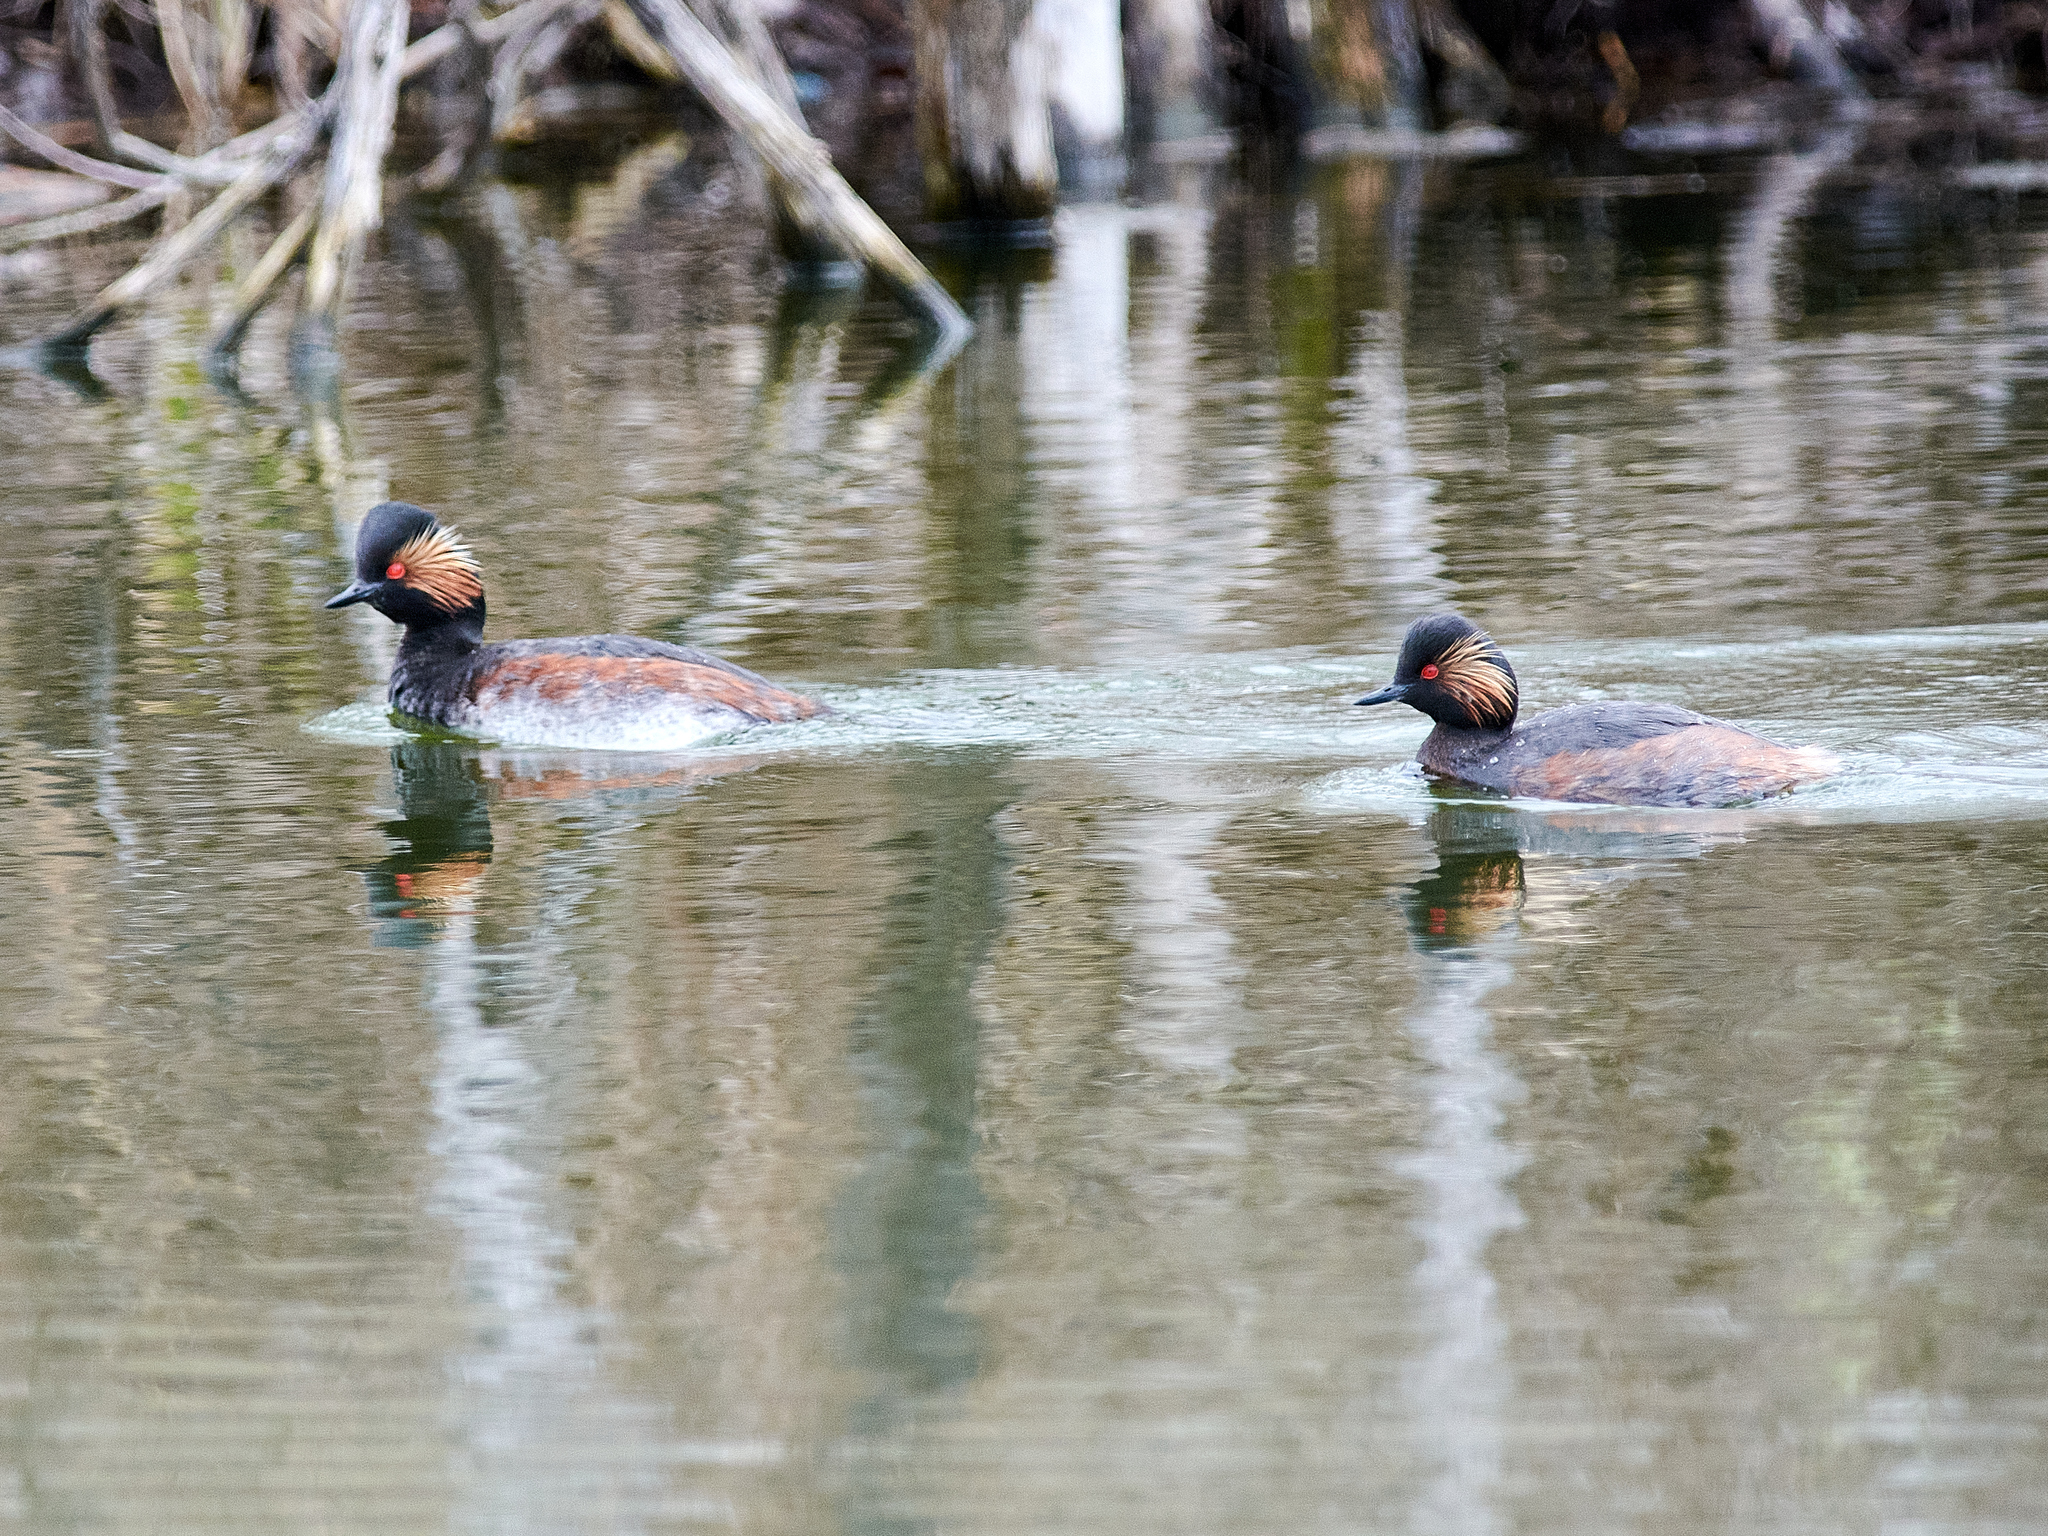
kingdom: Animalia
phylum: Chordata
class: Aves
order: Podicipediformes
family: Podicipedidae
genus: Podiceps
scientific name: Podiceps nigricollis
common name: Black-necked grebe
